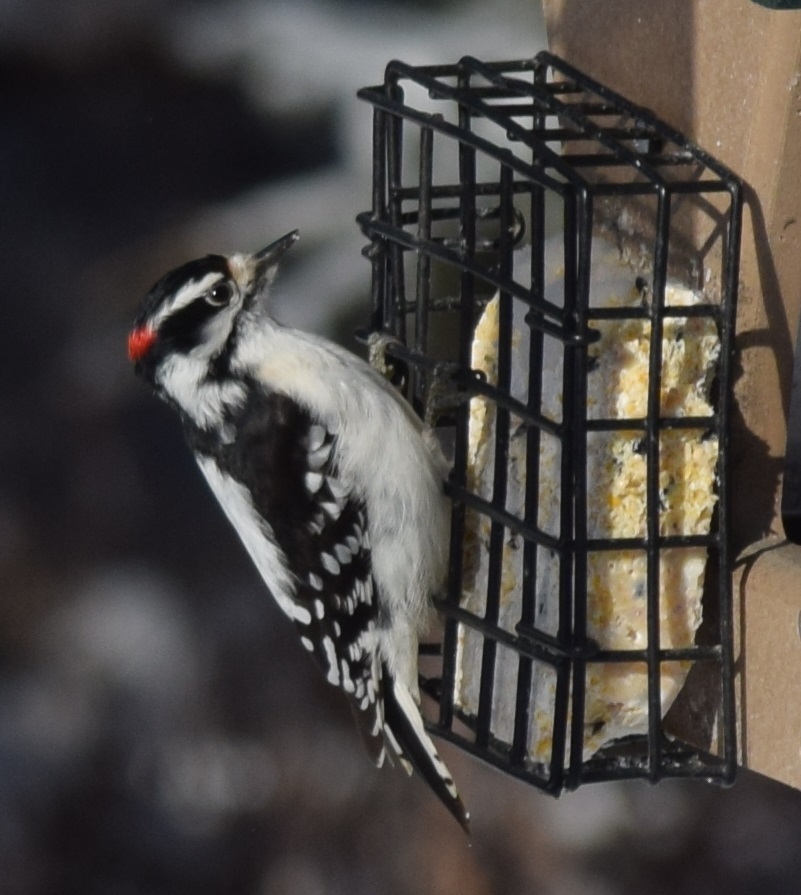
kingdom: Animalia
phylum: Chordata
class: Aves
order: Piciformes
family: Picidae
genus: Dryobates
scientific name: Dryobates pubescens
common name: Downy woodpecker
